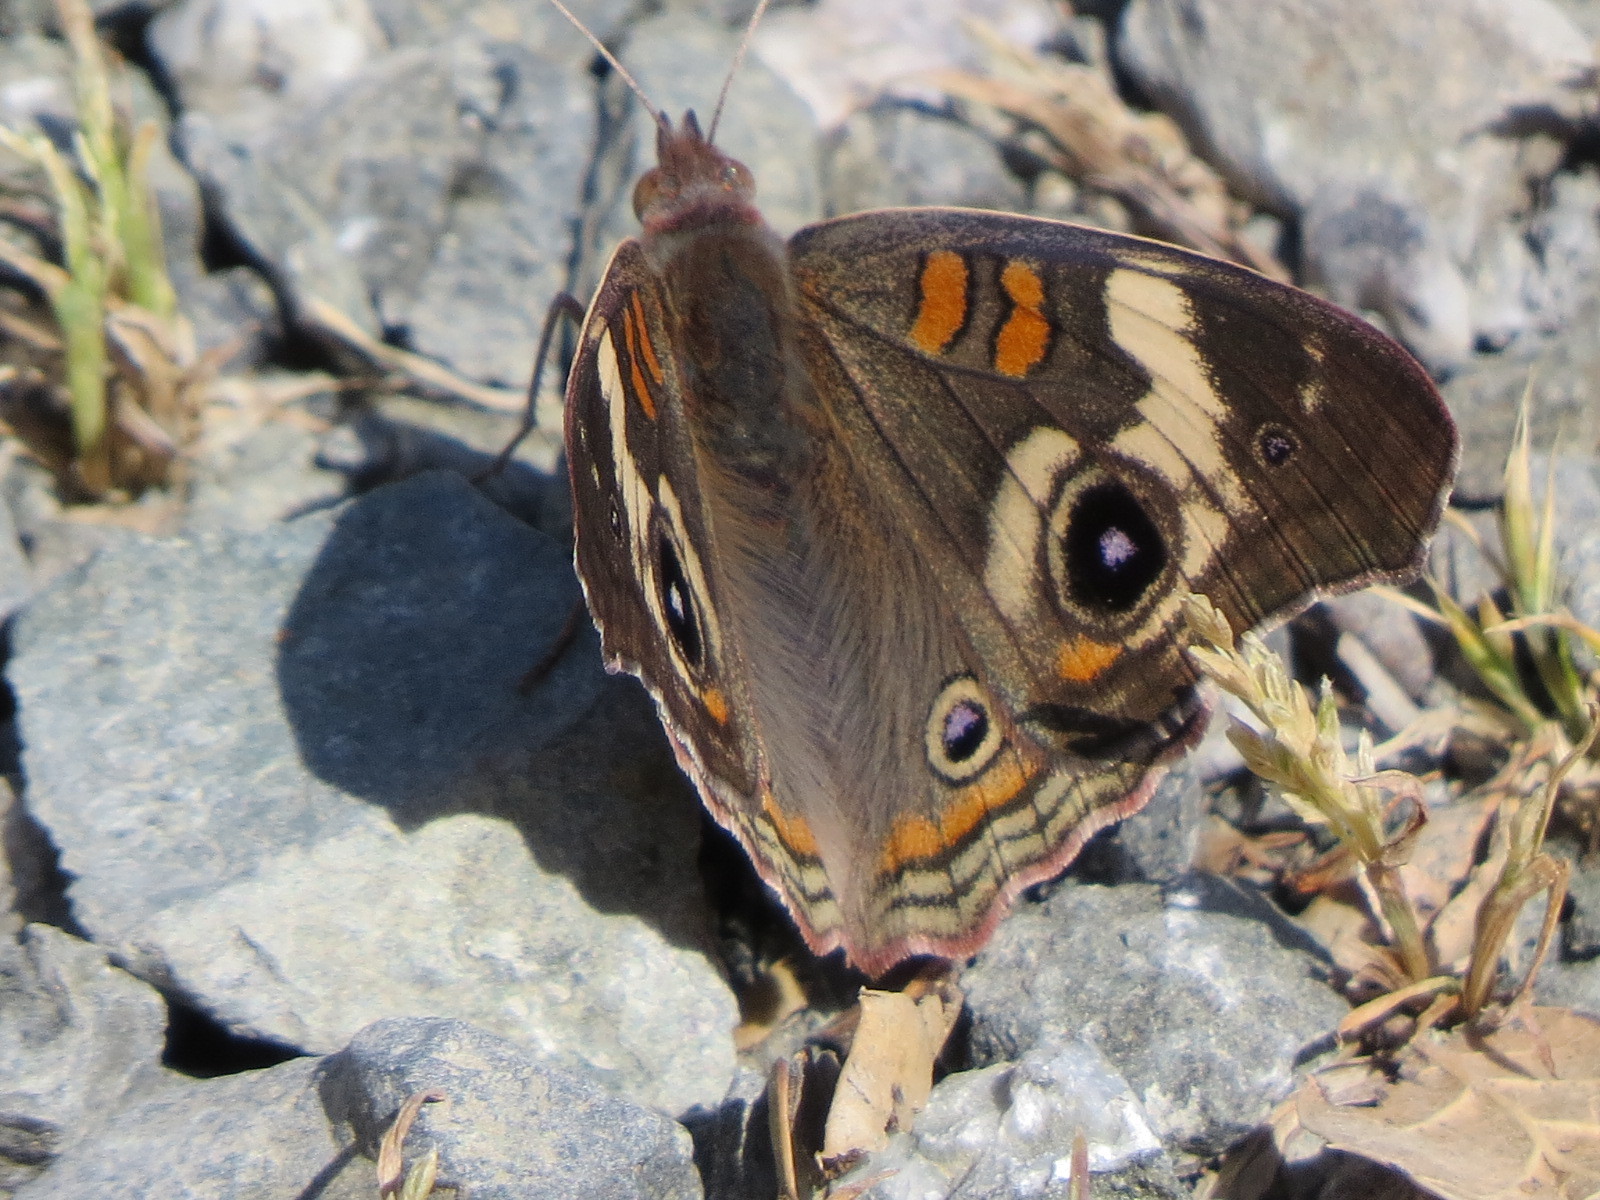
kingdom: Animalia
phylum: Arthropoda
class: Insecta
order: Lepidoptera
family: Nymphalidae
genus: Junonia
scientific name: Junonia grisea
